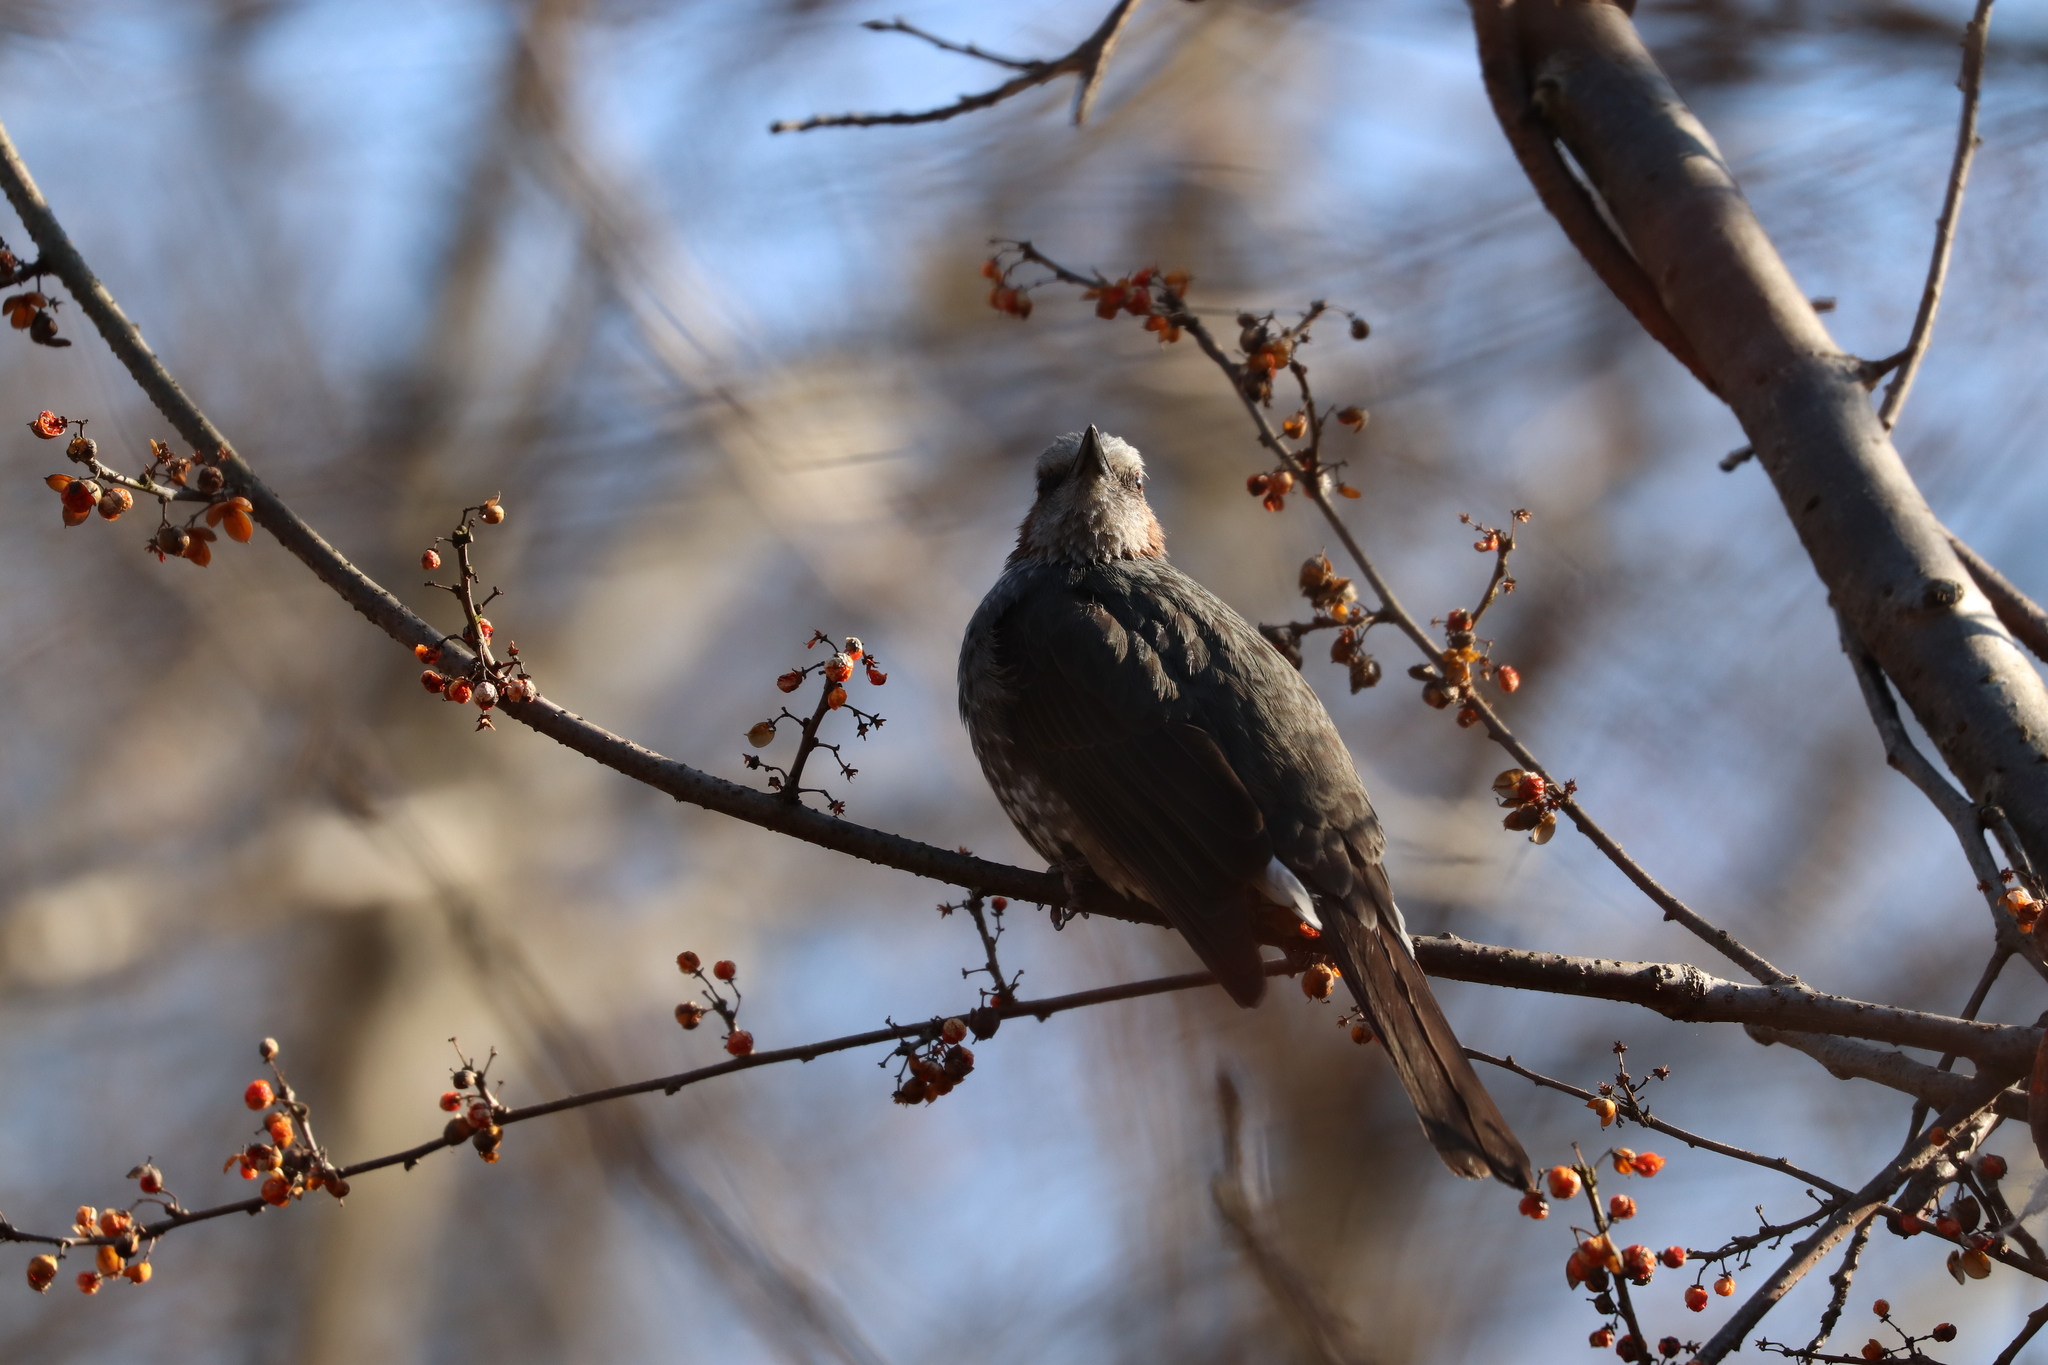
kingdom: Animalia
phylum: Chordata
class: Aves
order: Passeriformes
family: Pycnonotidae
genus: Hypsipetes
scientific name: Hypsipetes amaurotis
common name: Brown-eared bulbul
